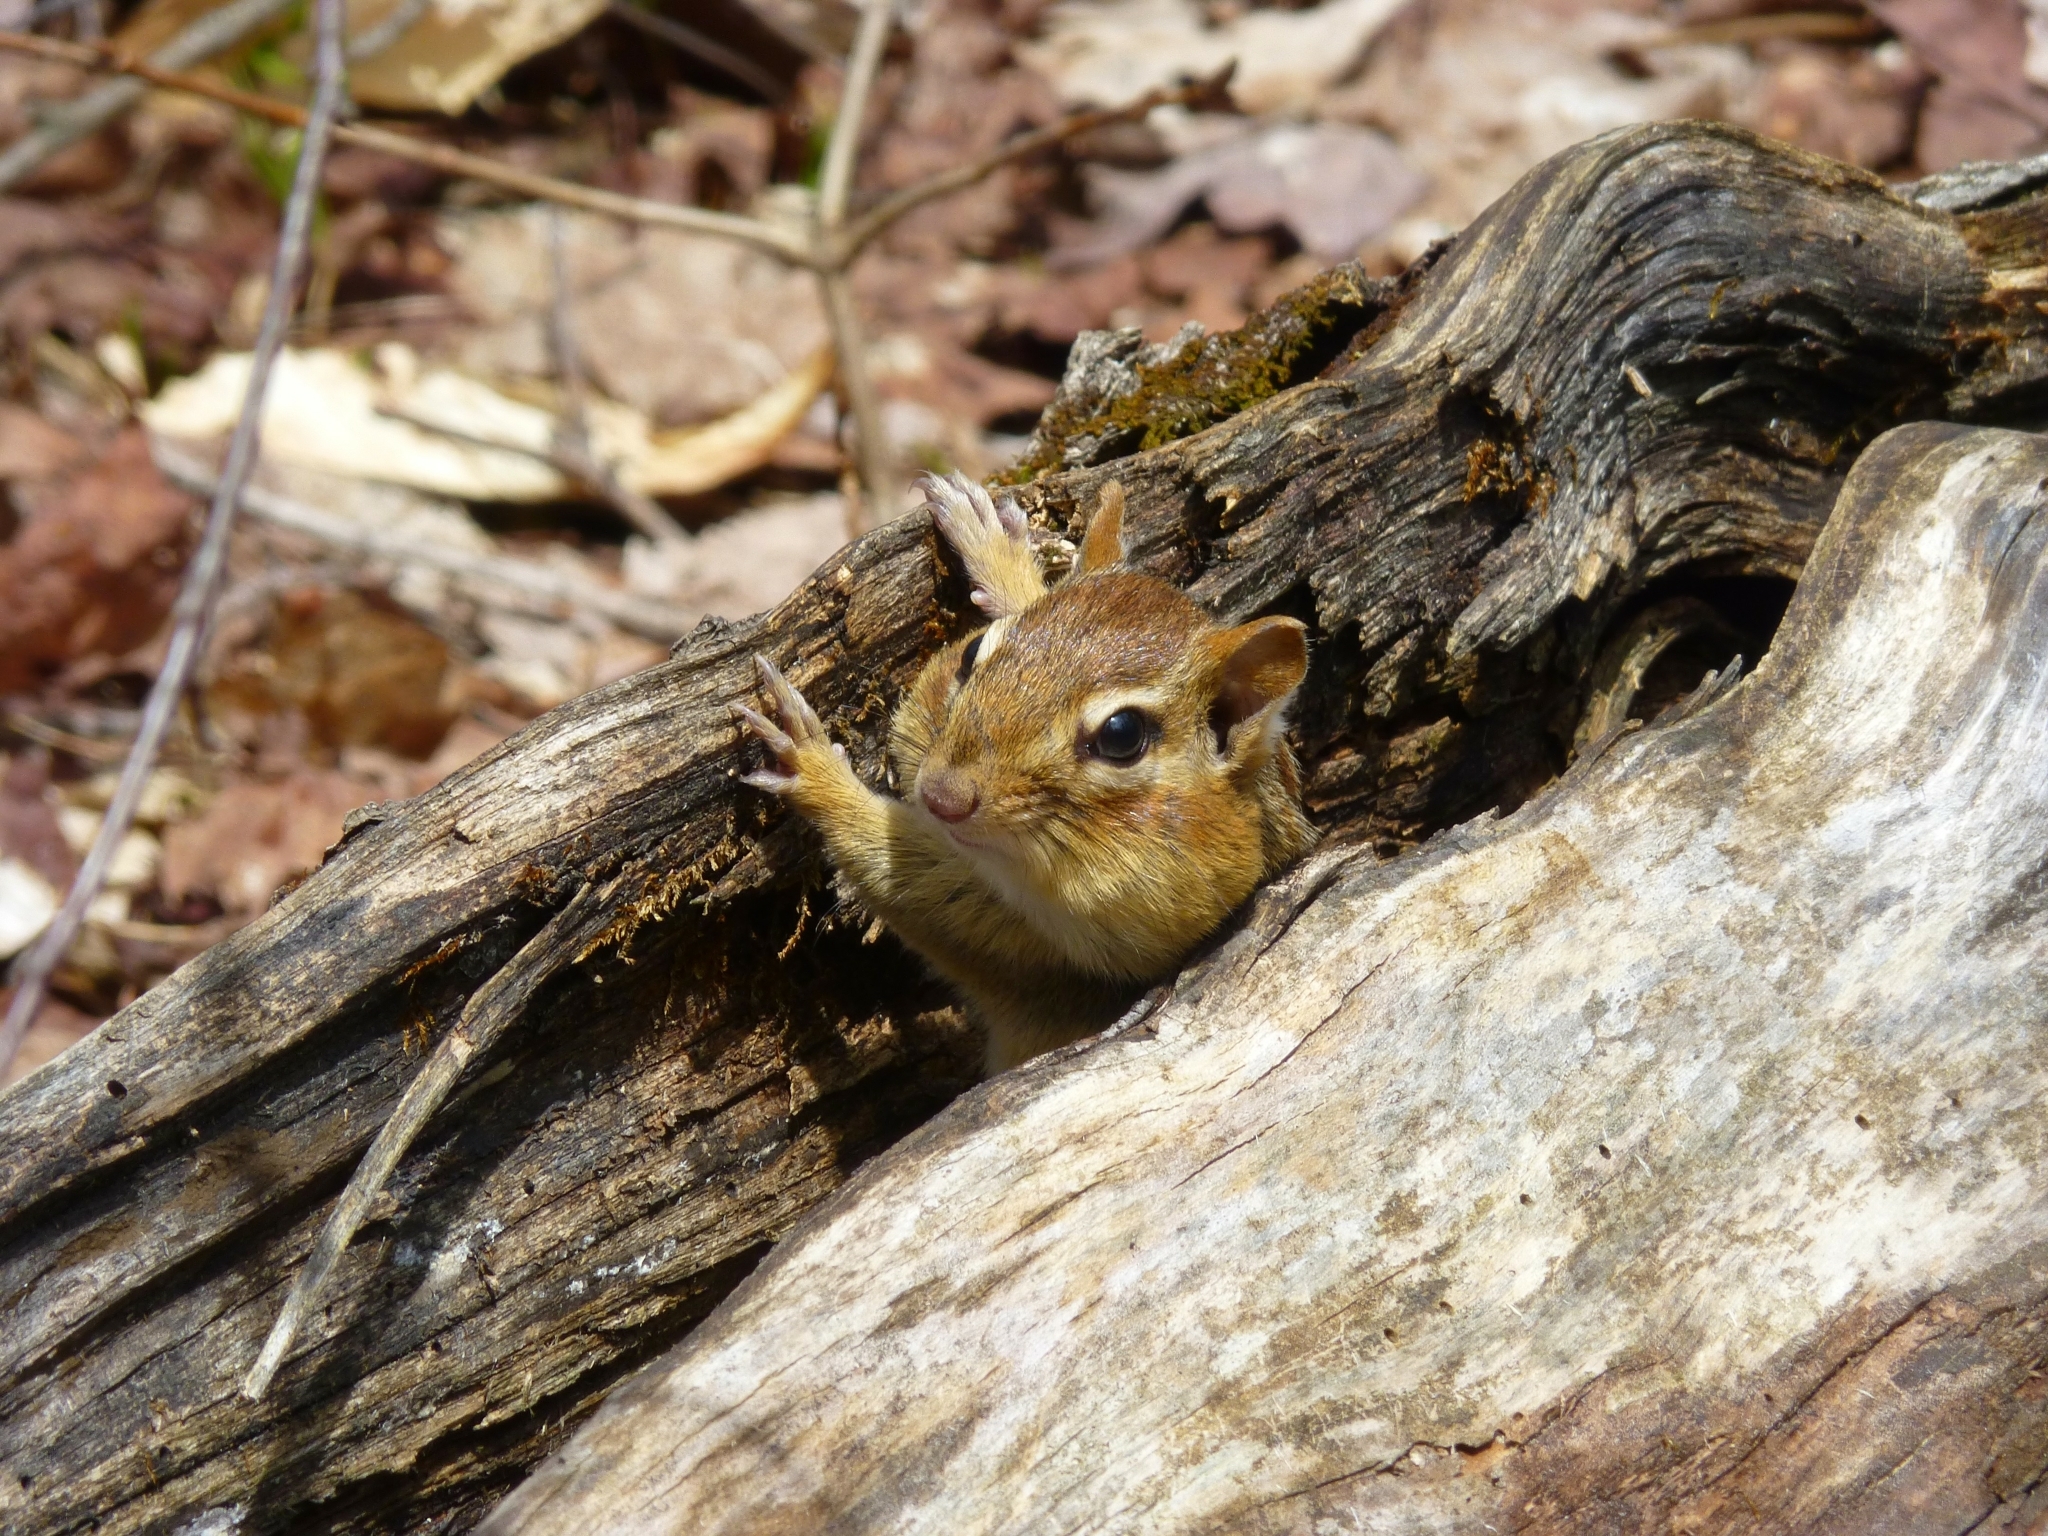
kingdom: Animalia
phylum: Chordata
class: Mammalia
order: Rodentia
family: Sciuridae
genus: Tamias
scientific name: Tamias striatus
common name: Eastern chipmunk
